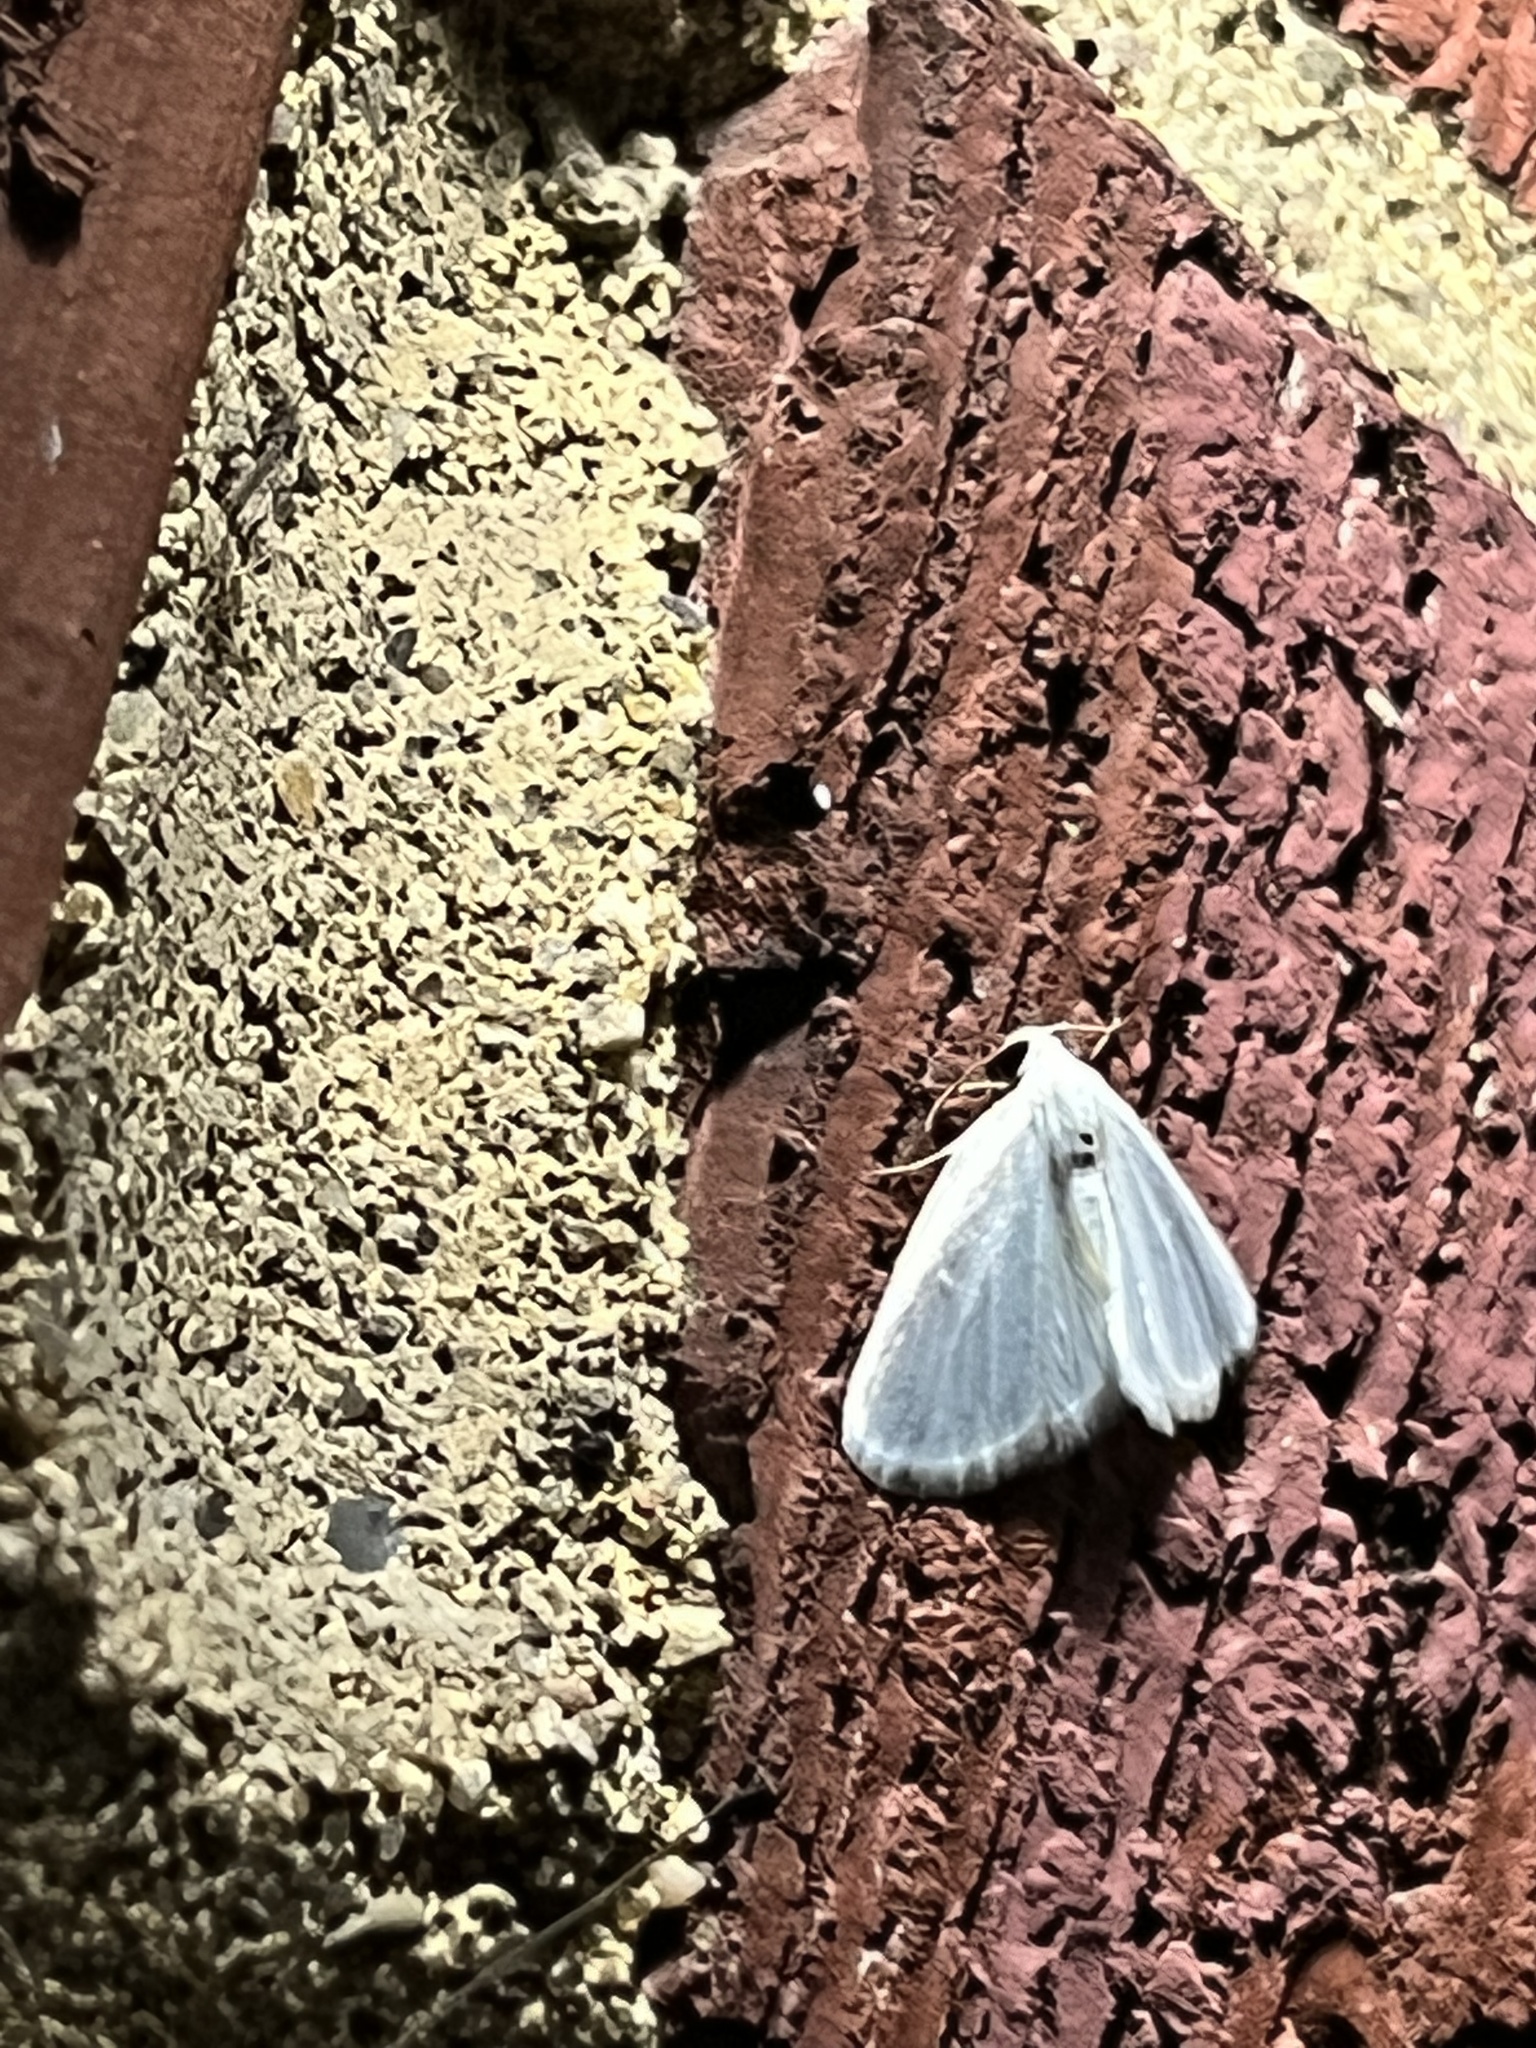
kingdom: Animalia
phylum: Arthropoda
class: Insecta
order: Lepidoptera
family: Geometridae
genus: Lomographa
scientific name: Lomographa vestaliata
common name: White spring moth
